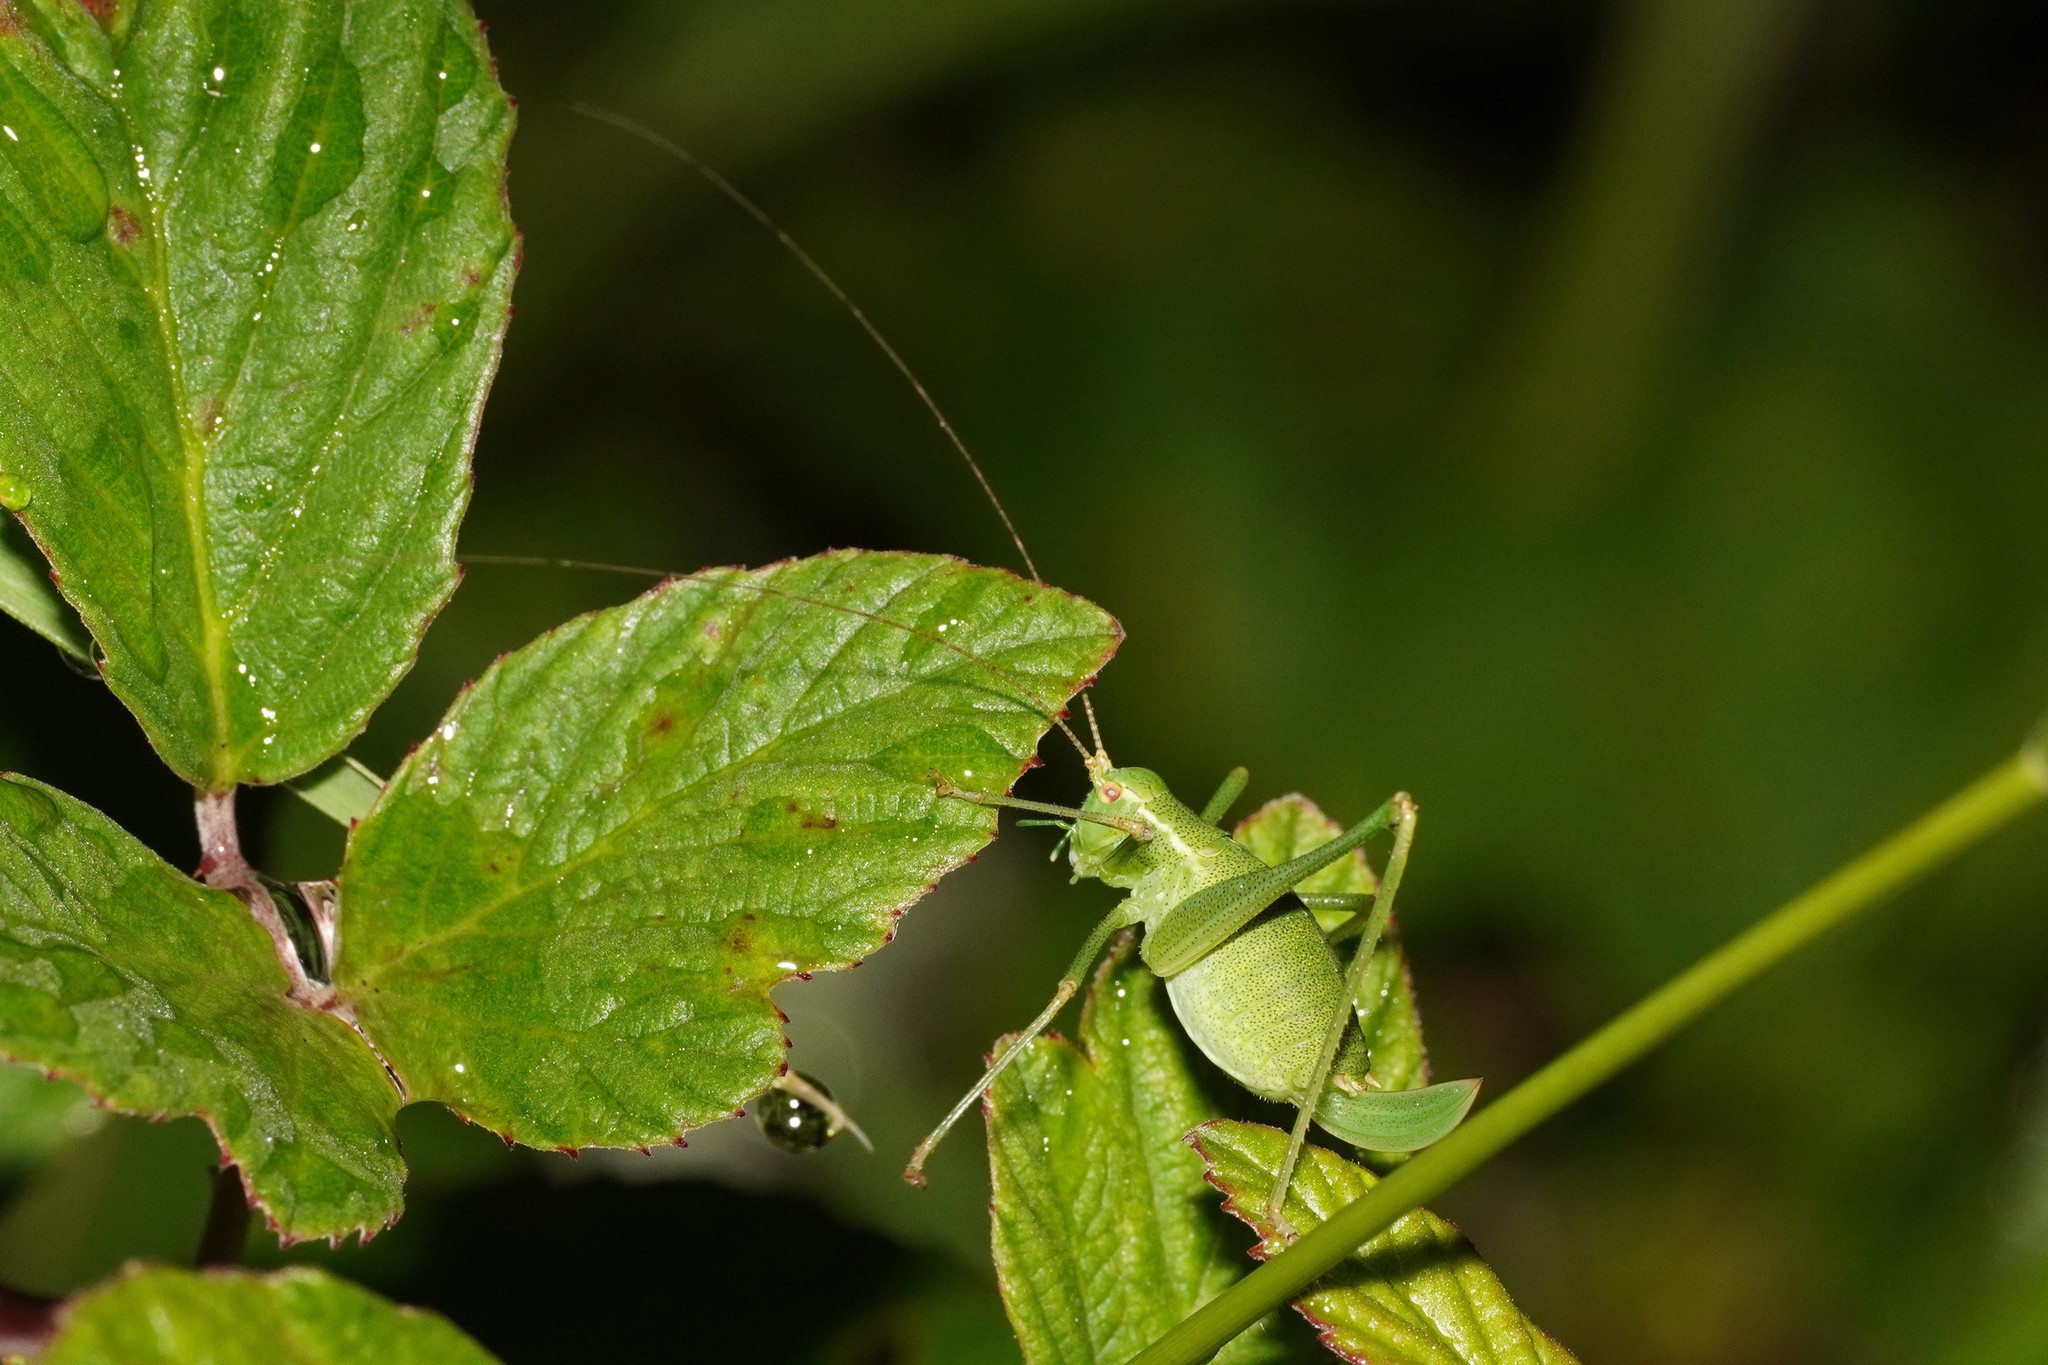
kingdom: Animalia
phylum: Arthropoda
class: Insecta
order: Orthoptera
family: Tettigoniidae
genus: Leptophyes
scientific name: Leptophyes punctatissima
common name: Speckled bush-cricket
